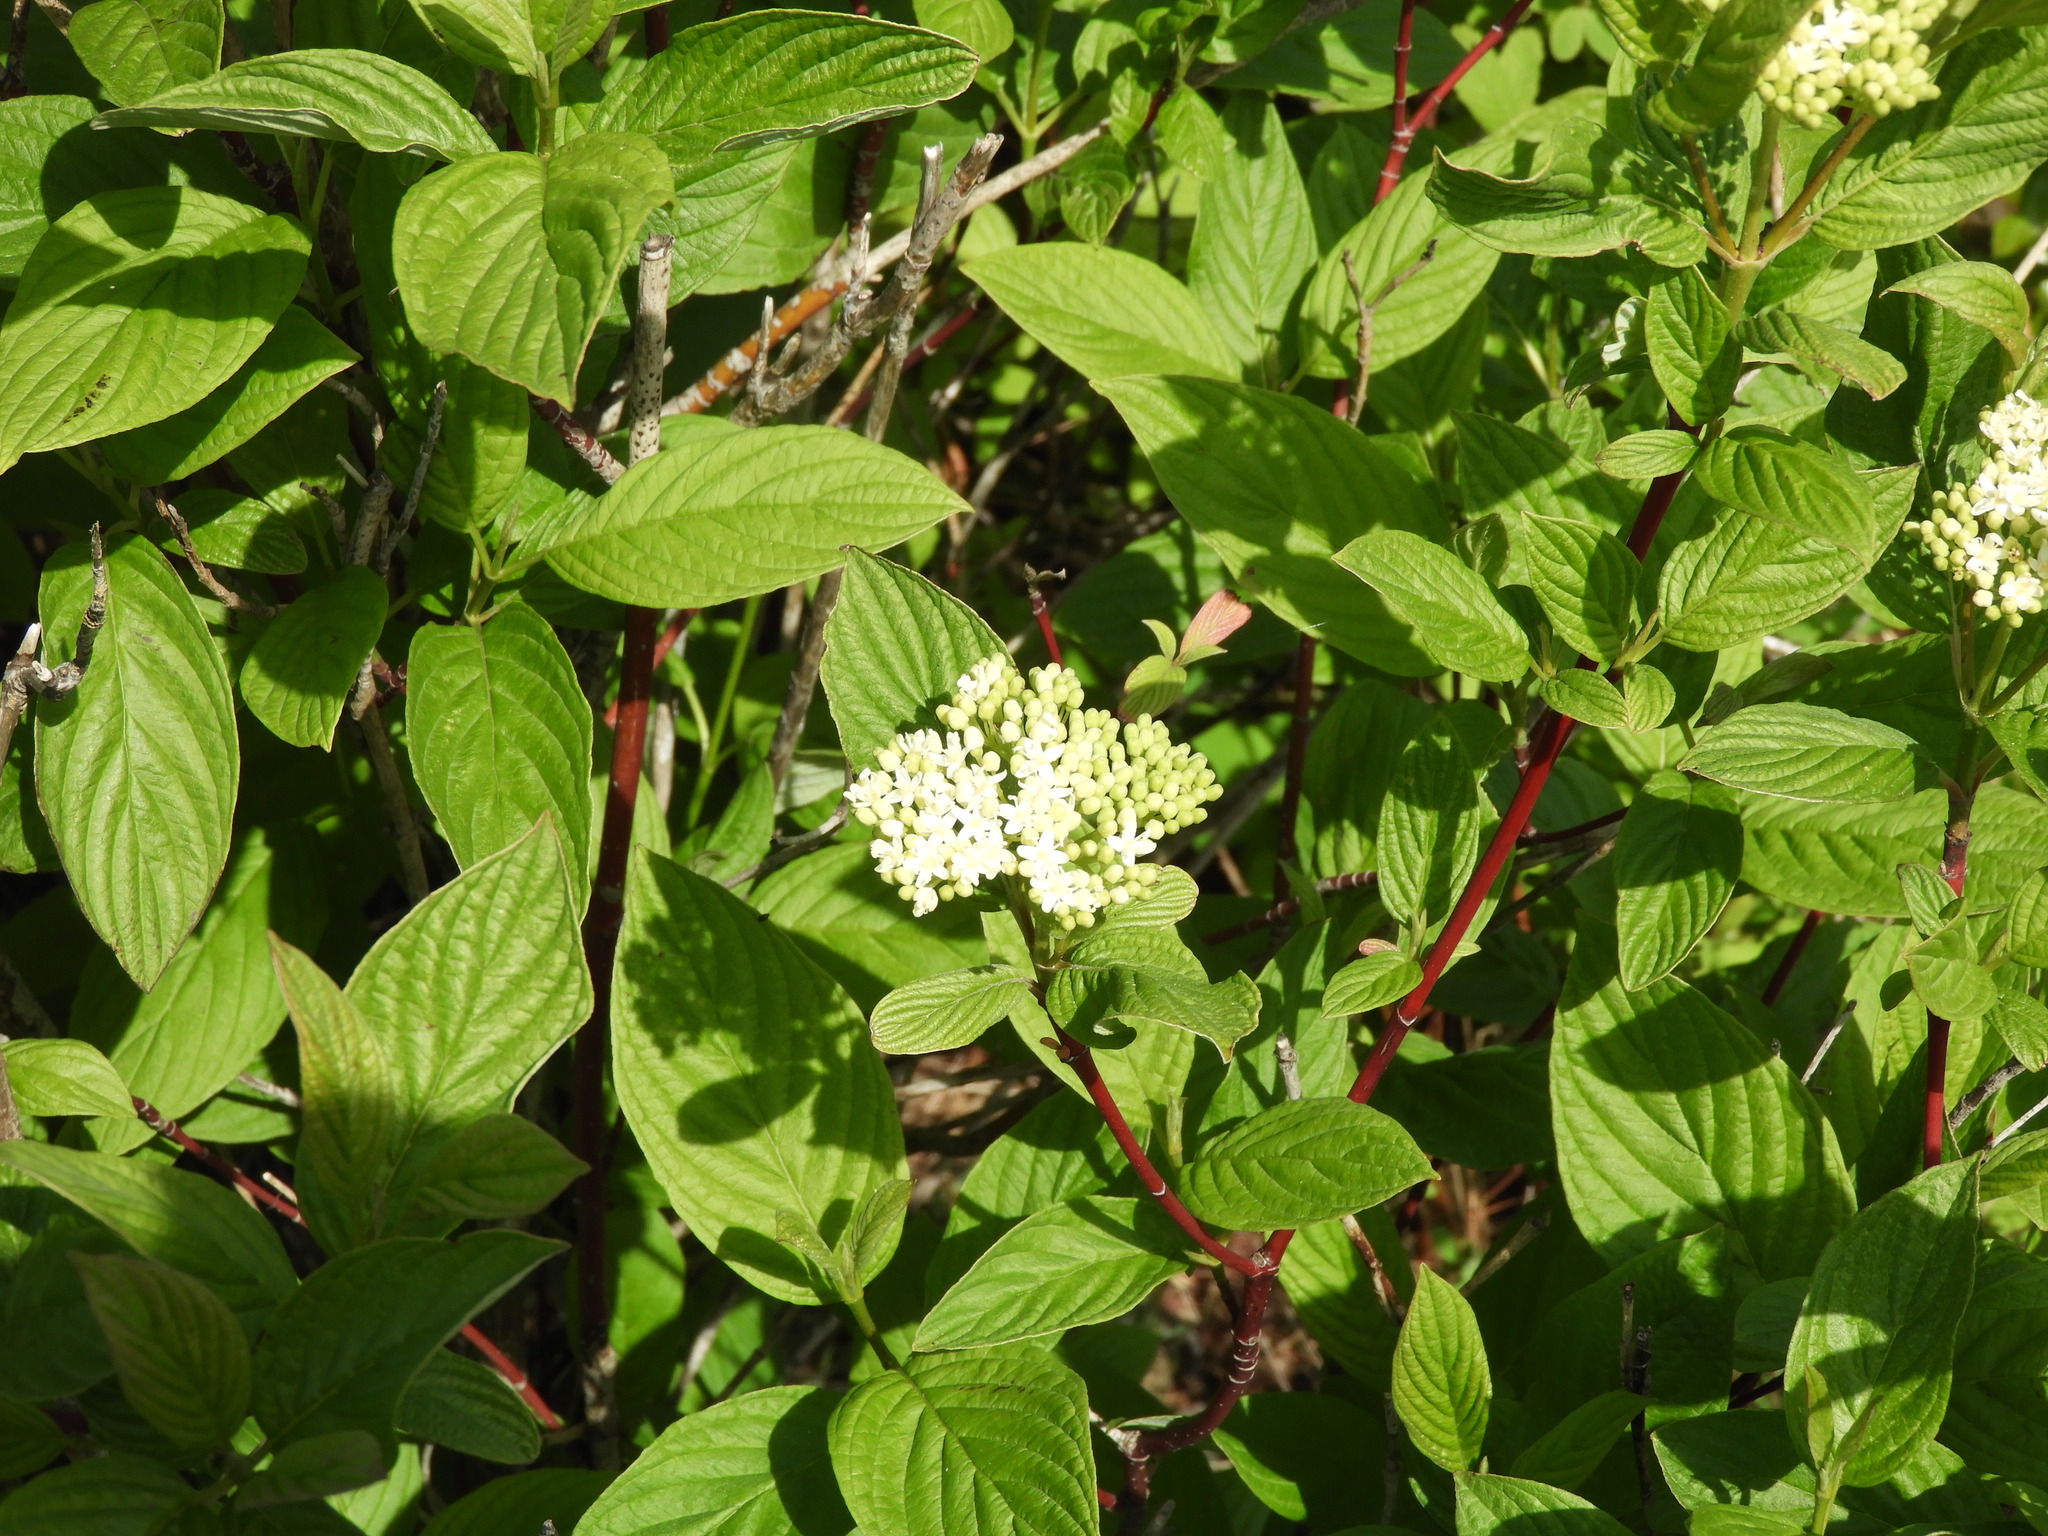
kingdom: Plantae
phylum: Tracheophyta
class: Magnoliopsida
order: Cornales
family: Cornaceae
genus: Cornus
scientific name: Cornus sericea
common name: Red-osier dogwood
